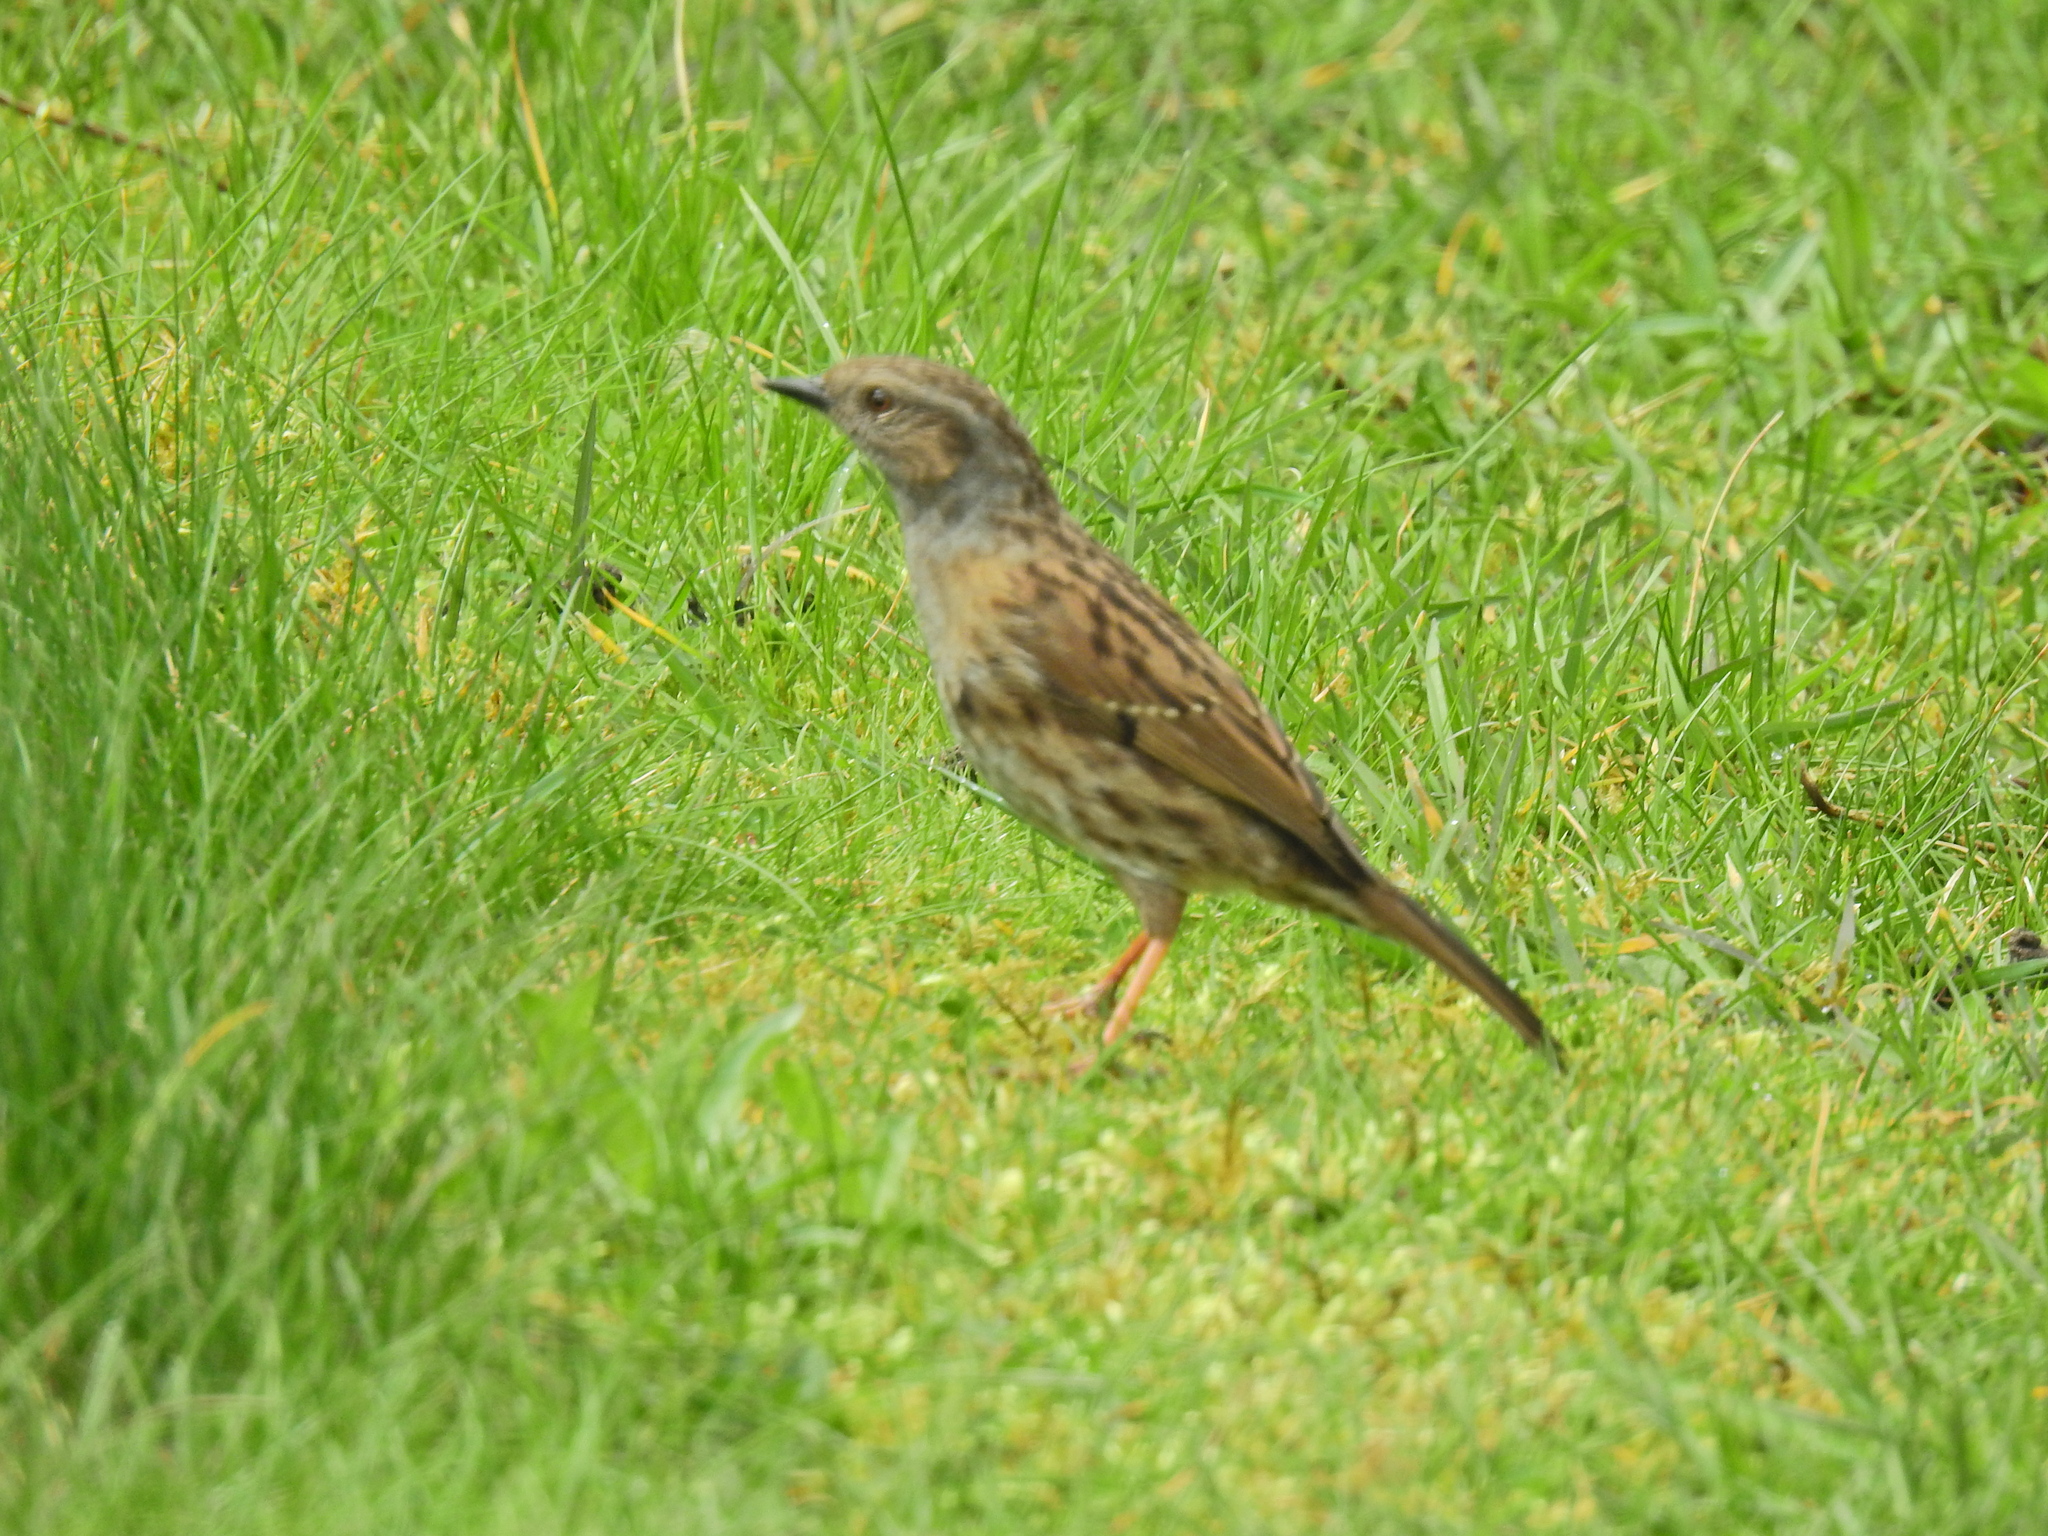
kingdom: Animalia
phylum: Chordata
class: Aves
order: Passeriformes
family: Prunellidae
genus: Prunella
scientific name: Prunella modularis
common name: Dunnock
